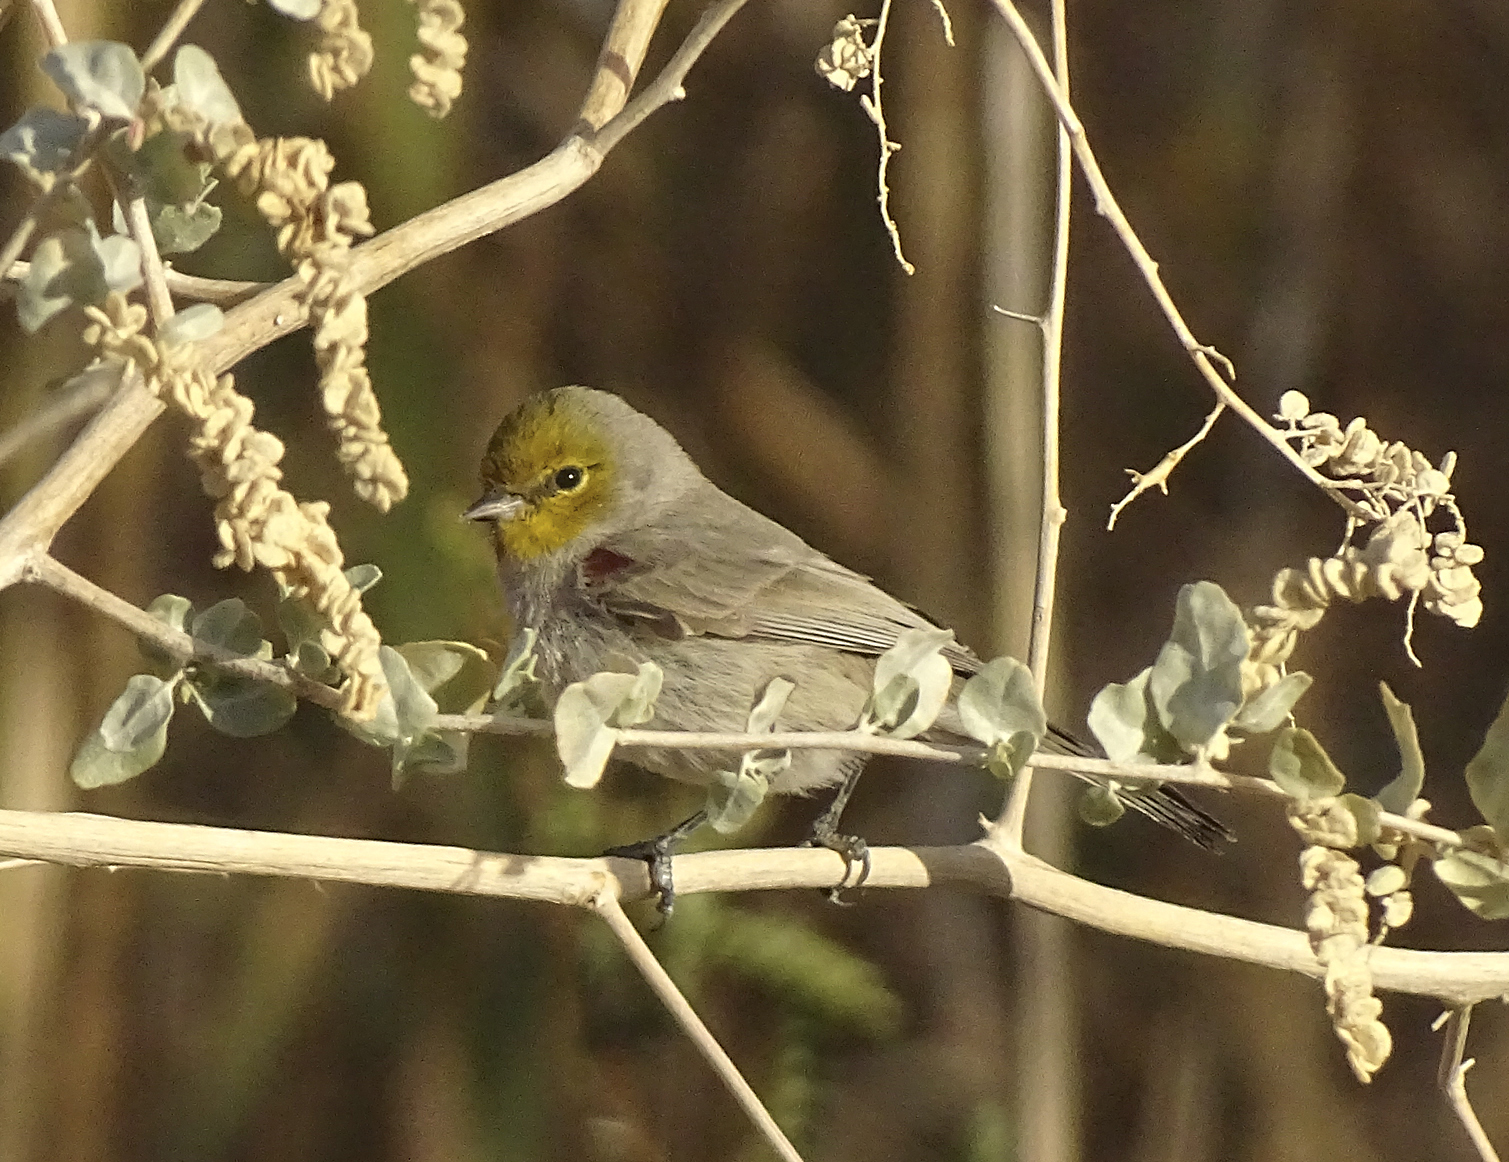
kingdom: Animalia
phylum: Chordata
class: Aves
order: Passeriformes
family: Remizidae
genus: Auriparus
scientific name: Auriparus flaviceps
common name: Verdin
